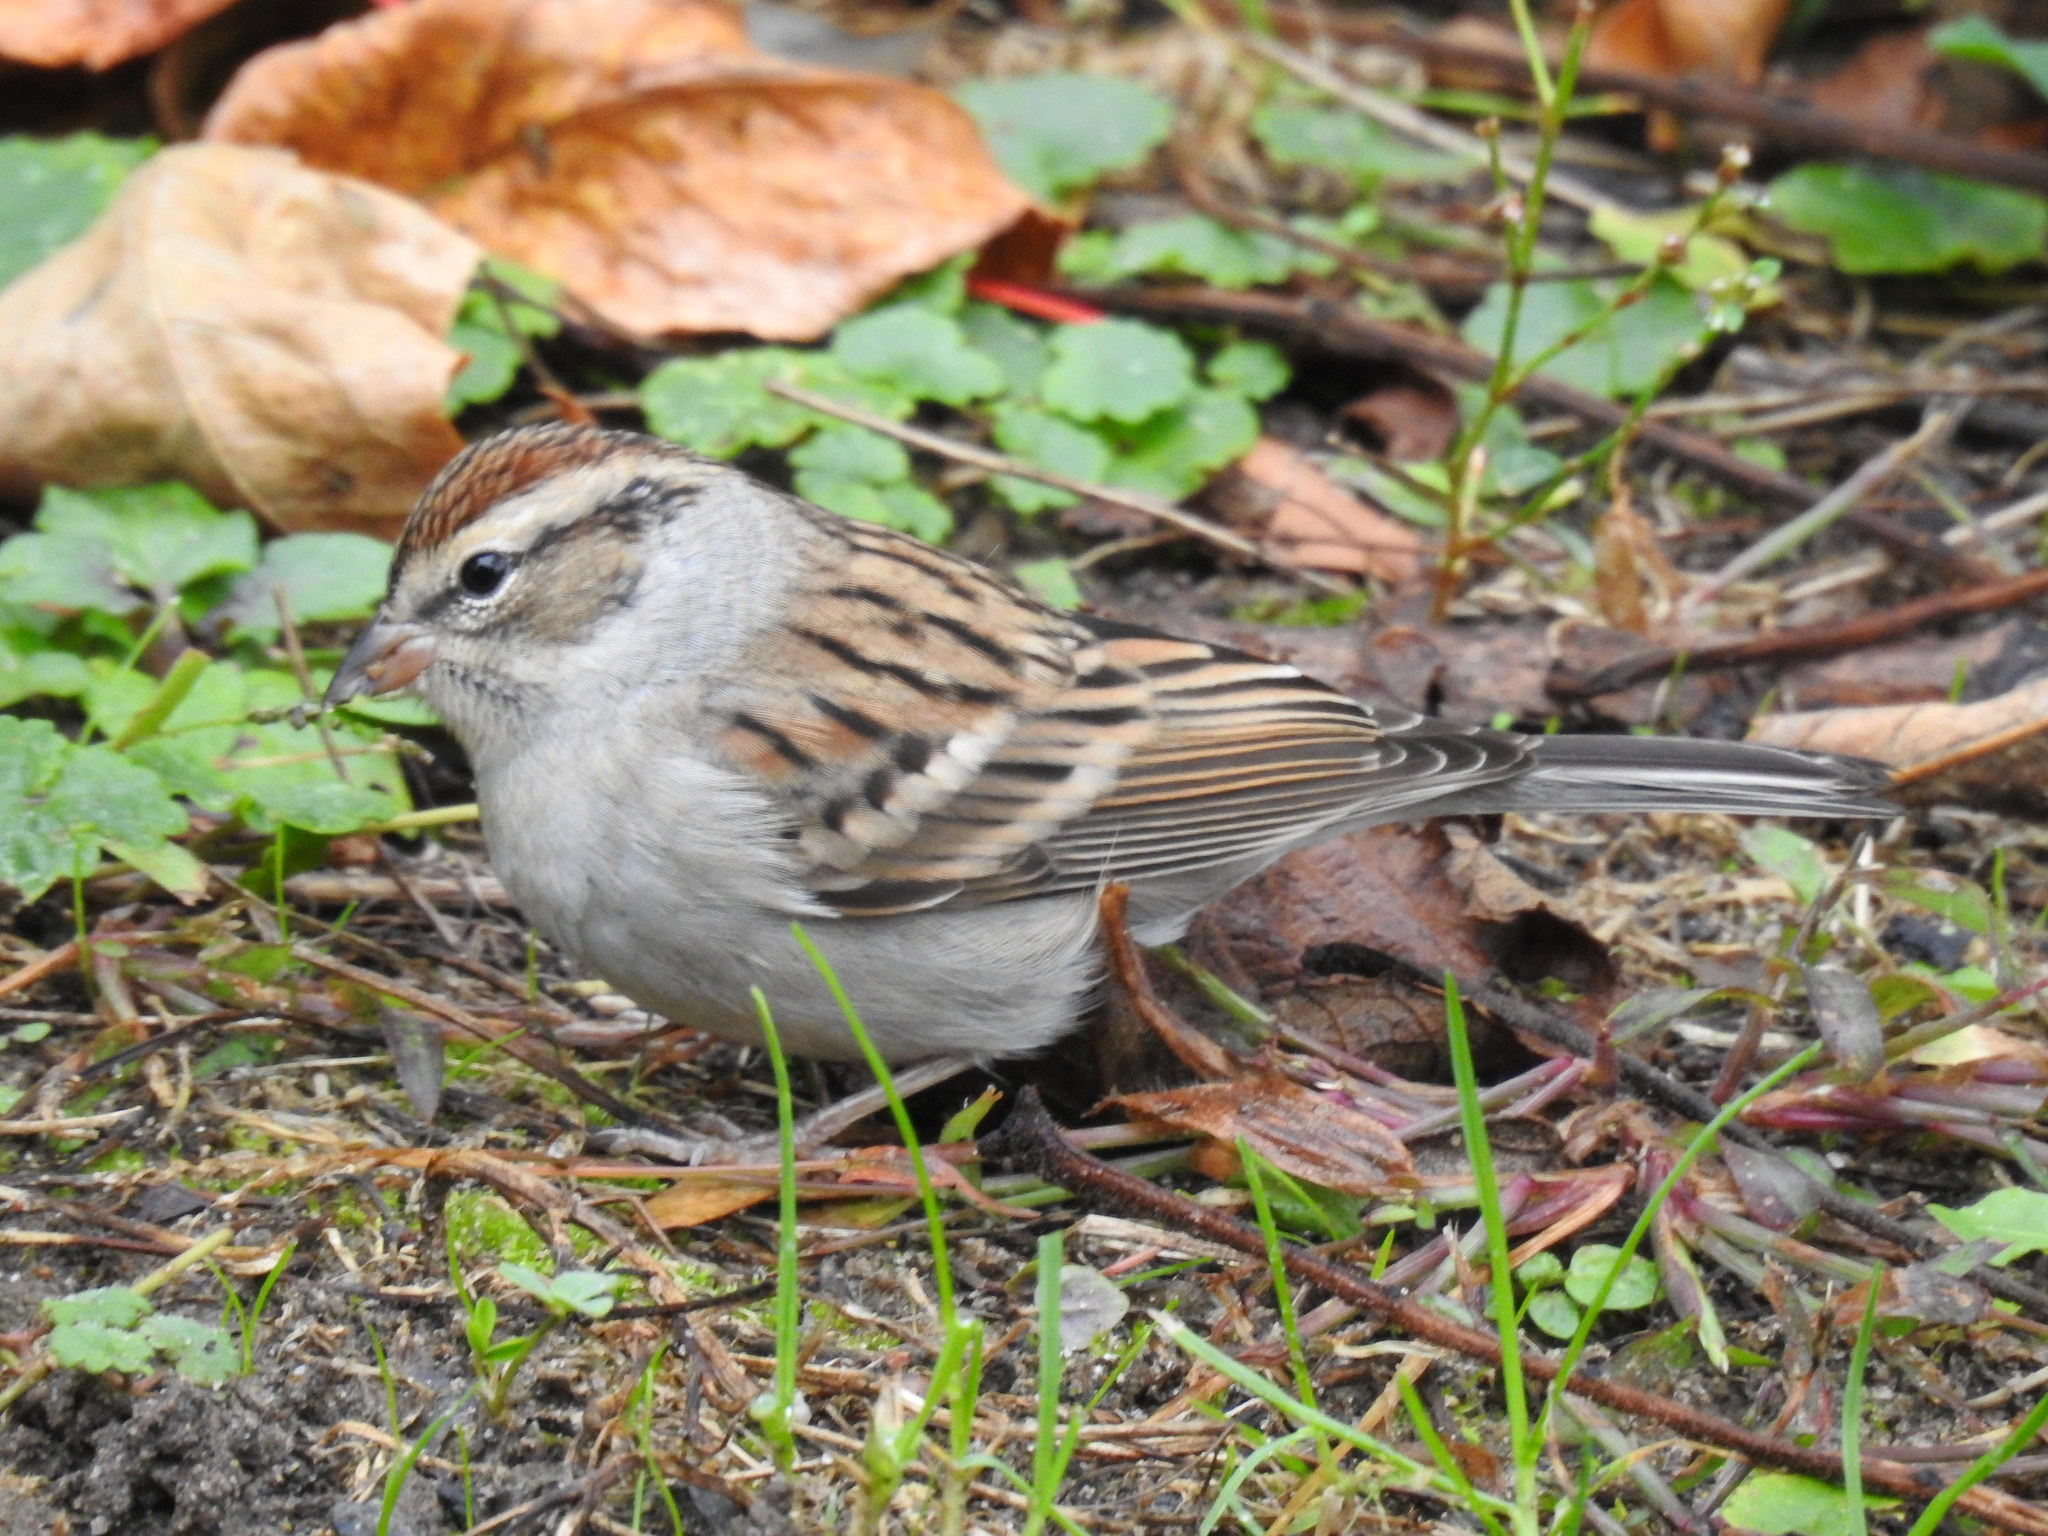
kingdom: Animalia
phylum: Chordata
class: Aves
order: Passeriformes
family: Passerellidae
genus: Spizella
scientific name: Spizella passerina
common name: Chipping sparrow
